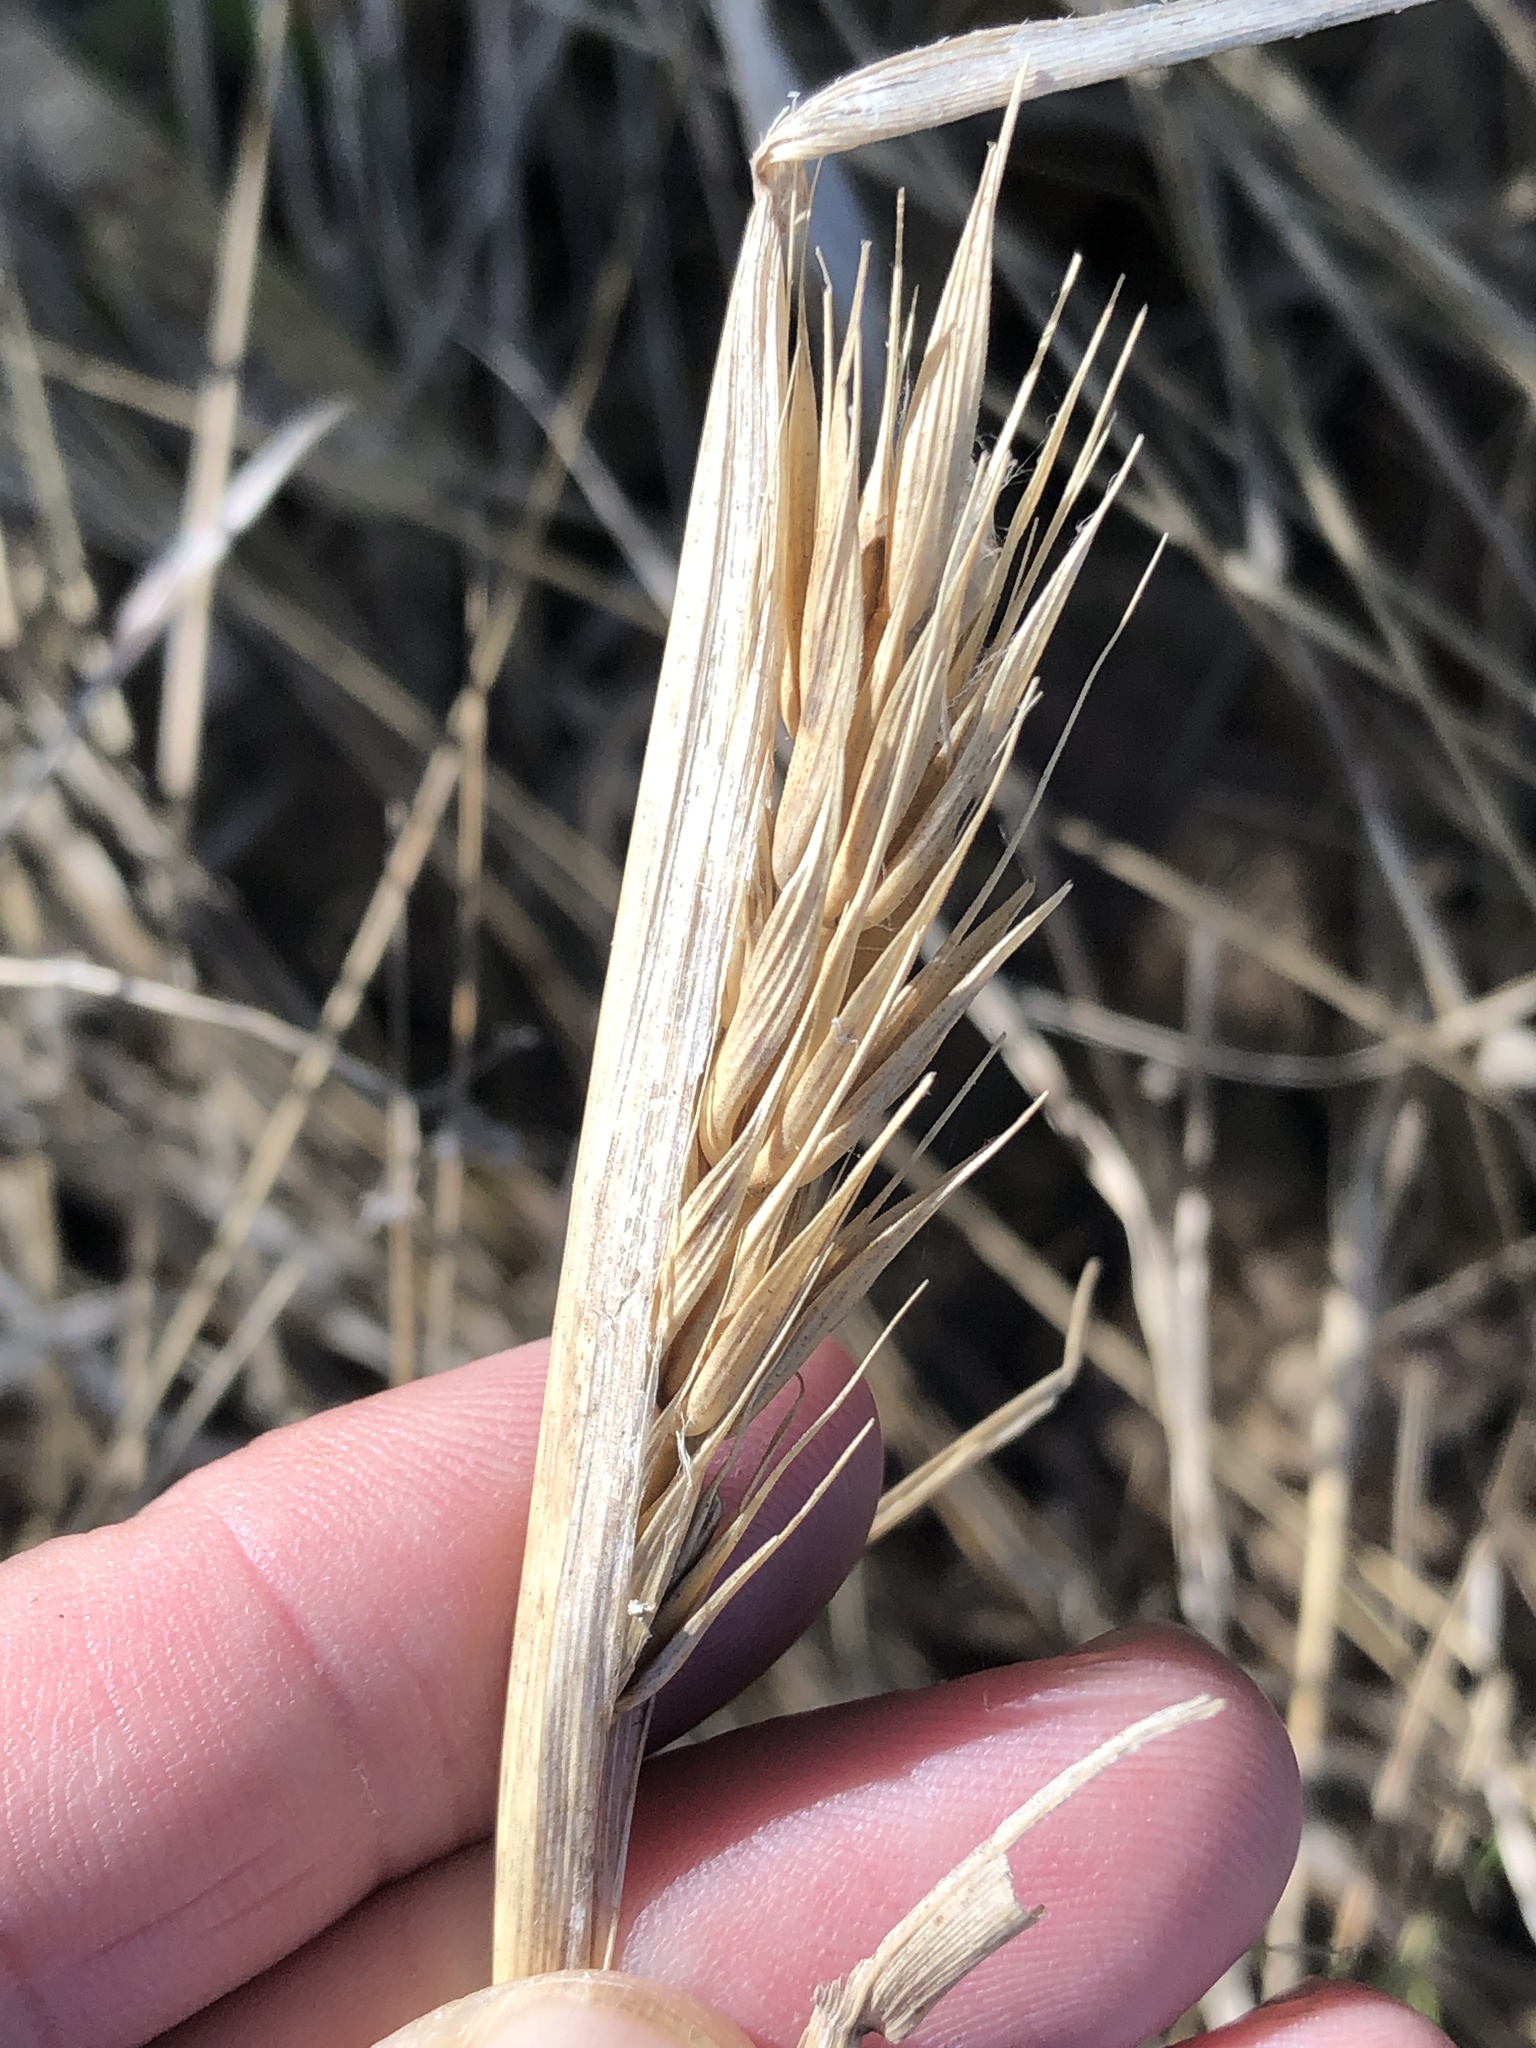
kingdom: Plantae
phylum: Tracheophyta
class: Liliopsida
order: Poales
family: Poaceae
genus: Elymus
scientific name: Elymus virginicus
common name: Common eastern wildrye
